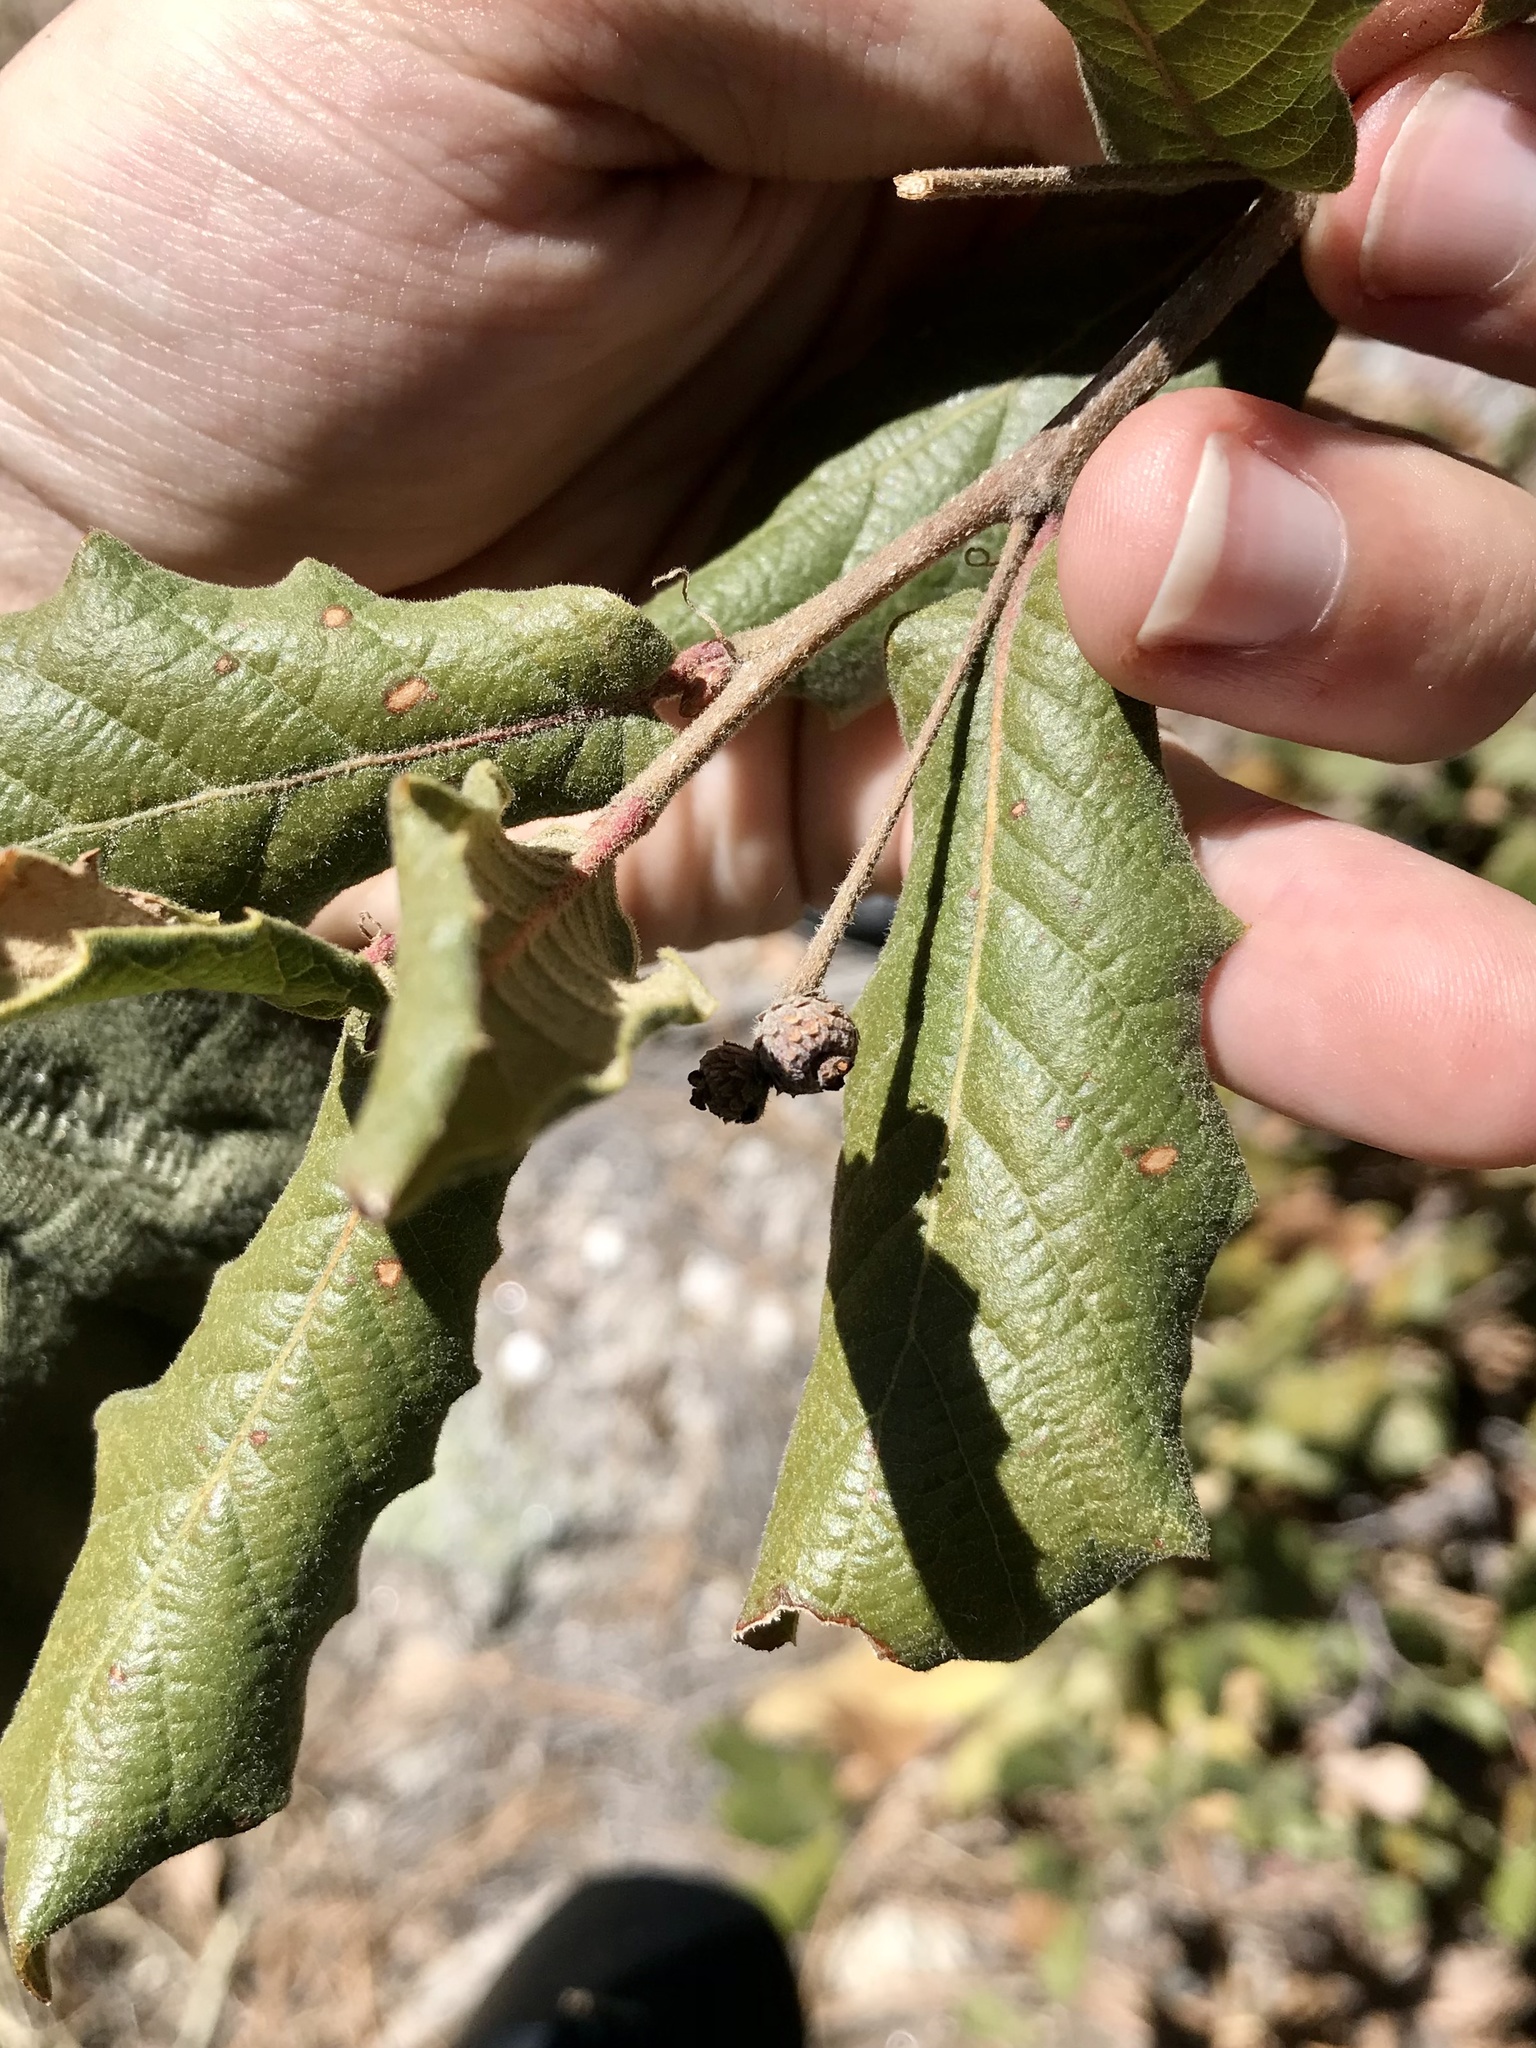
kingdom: Plantae
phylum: Tracheophyta
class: Magnoliopsida
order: Fagales
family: Fagaceae
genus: Quercus
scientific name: Quercus rugosa
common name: Netleaf oak
